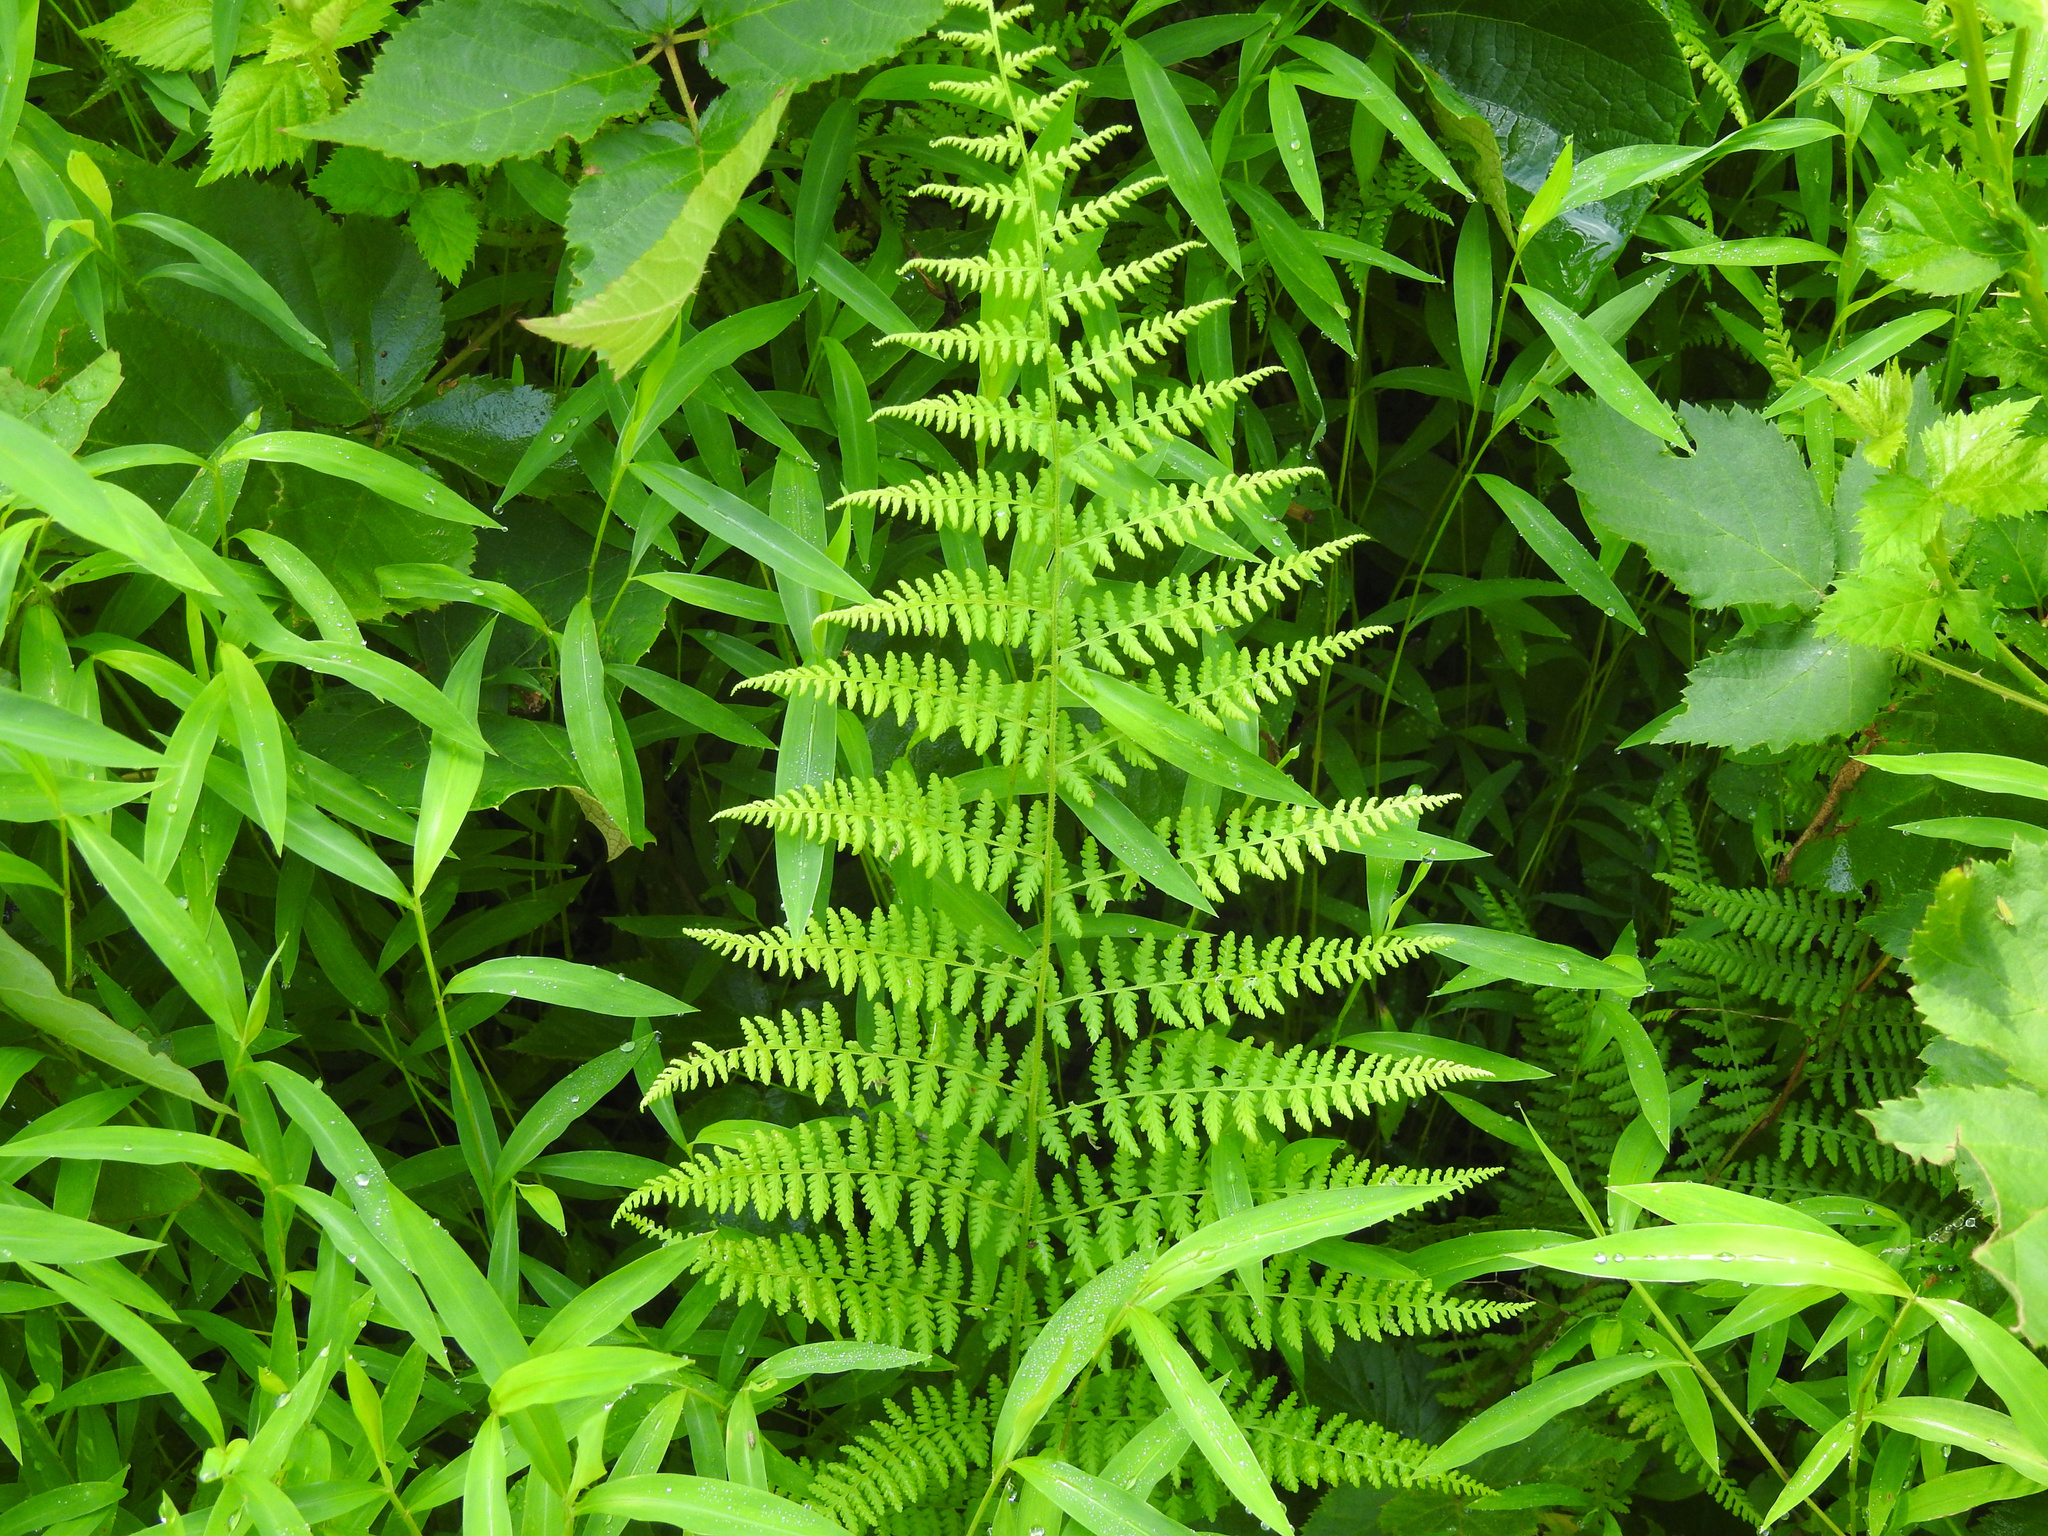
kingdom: Plantae
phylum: Tracheophyta
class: Polypodiopsida
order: Polypodiales
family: Dennstaedtiaceae
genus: Sitobolium
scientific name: Sitobolium punctilobum
